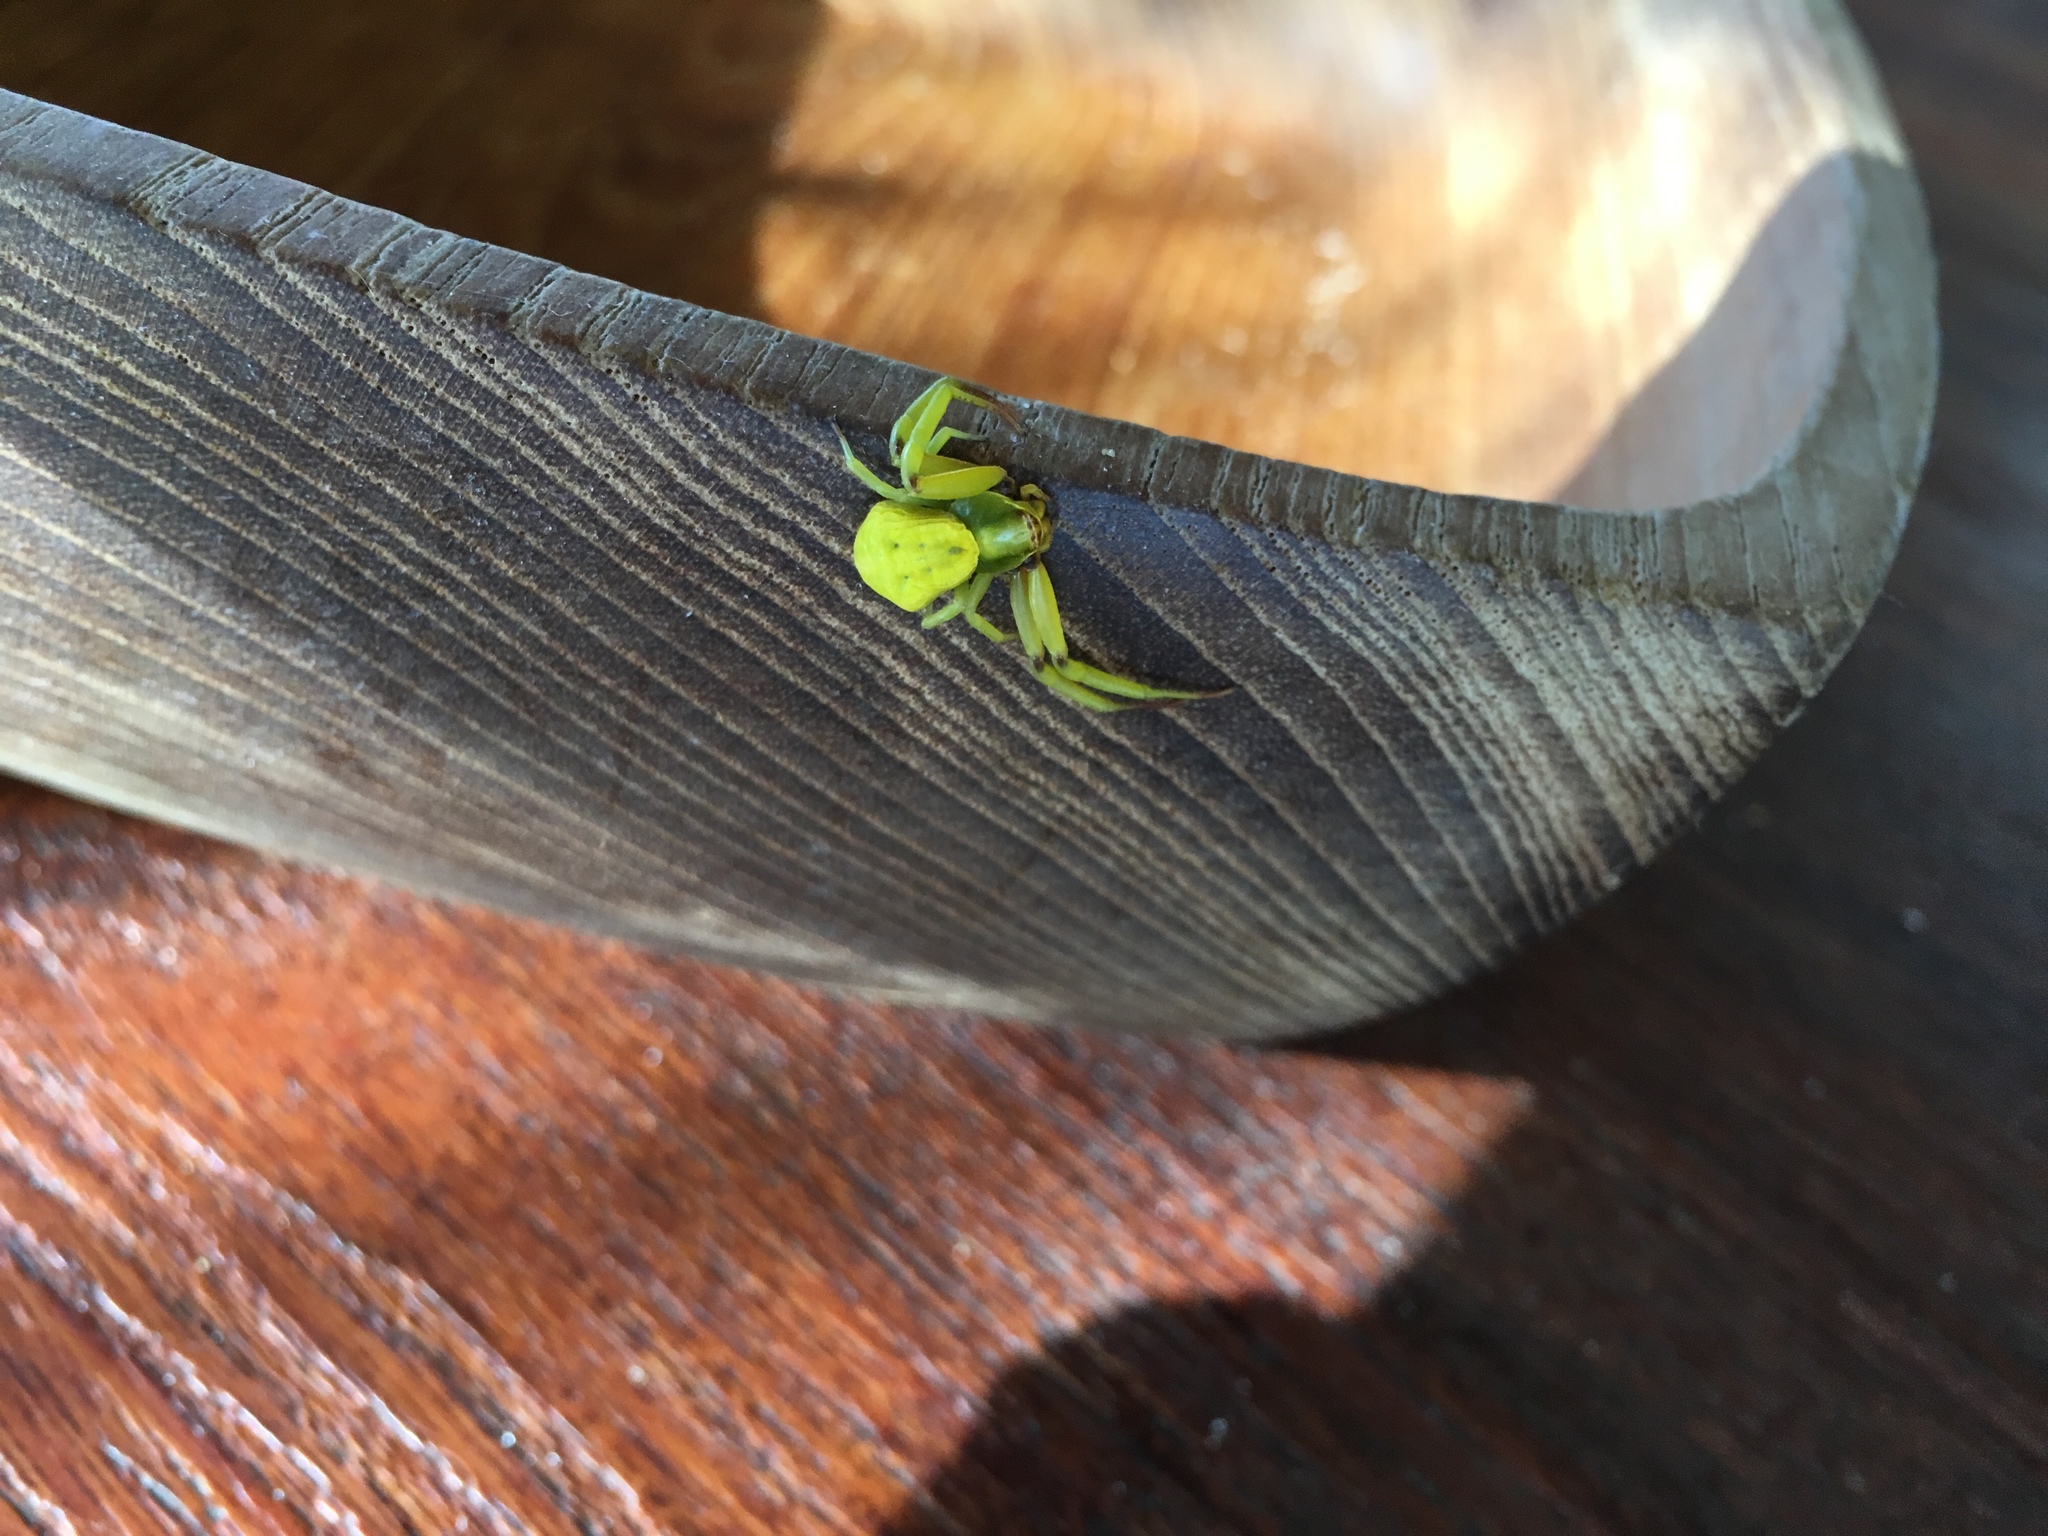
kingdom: Animalia
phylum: Arthropoda
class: Arachnida
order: Araneae
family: Thomisidae
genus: Misumenoides
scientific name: Misumenoides formosipes
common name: White-banded crab spider
